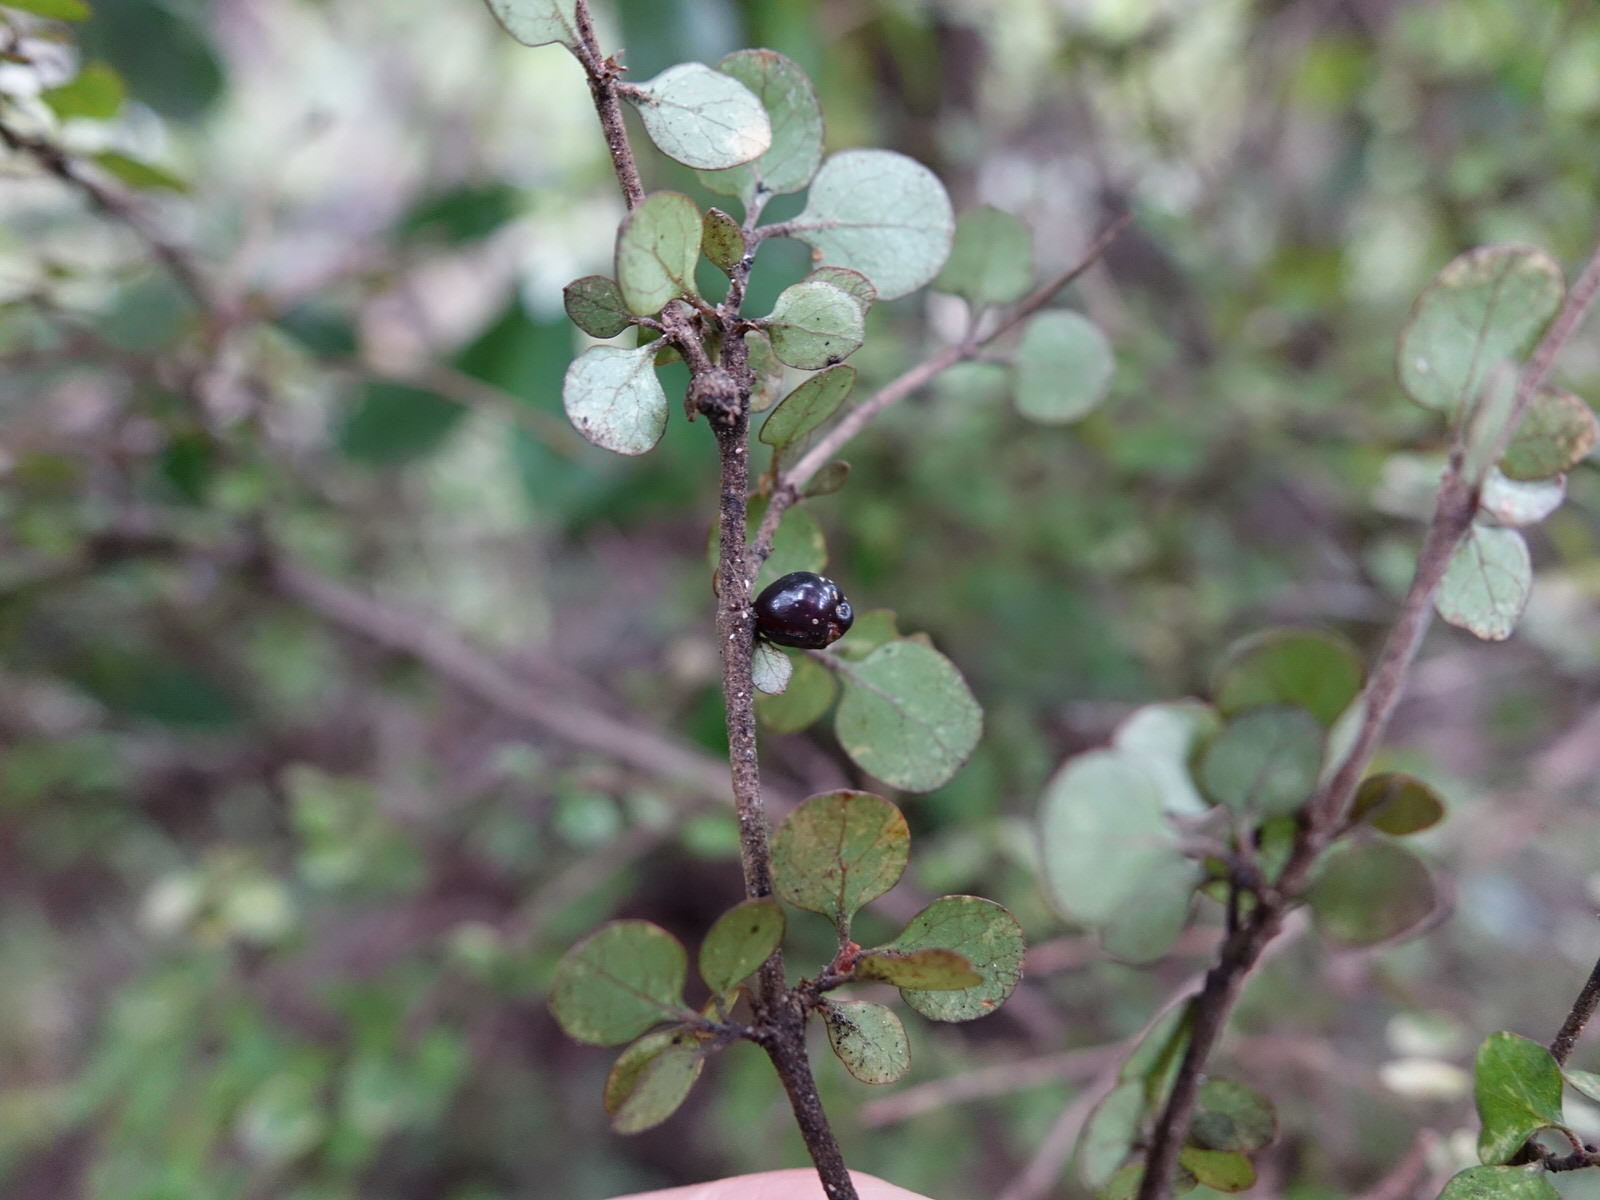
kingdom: Plantae
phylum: Tracheophyta
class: Magnoliopsida
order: Gentianales
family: Rubiaceae
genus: Coprosma
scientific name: Coprosma rhamnoides
